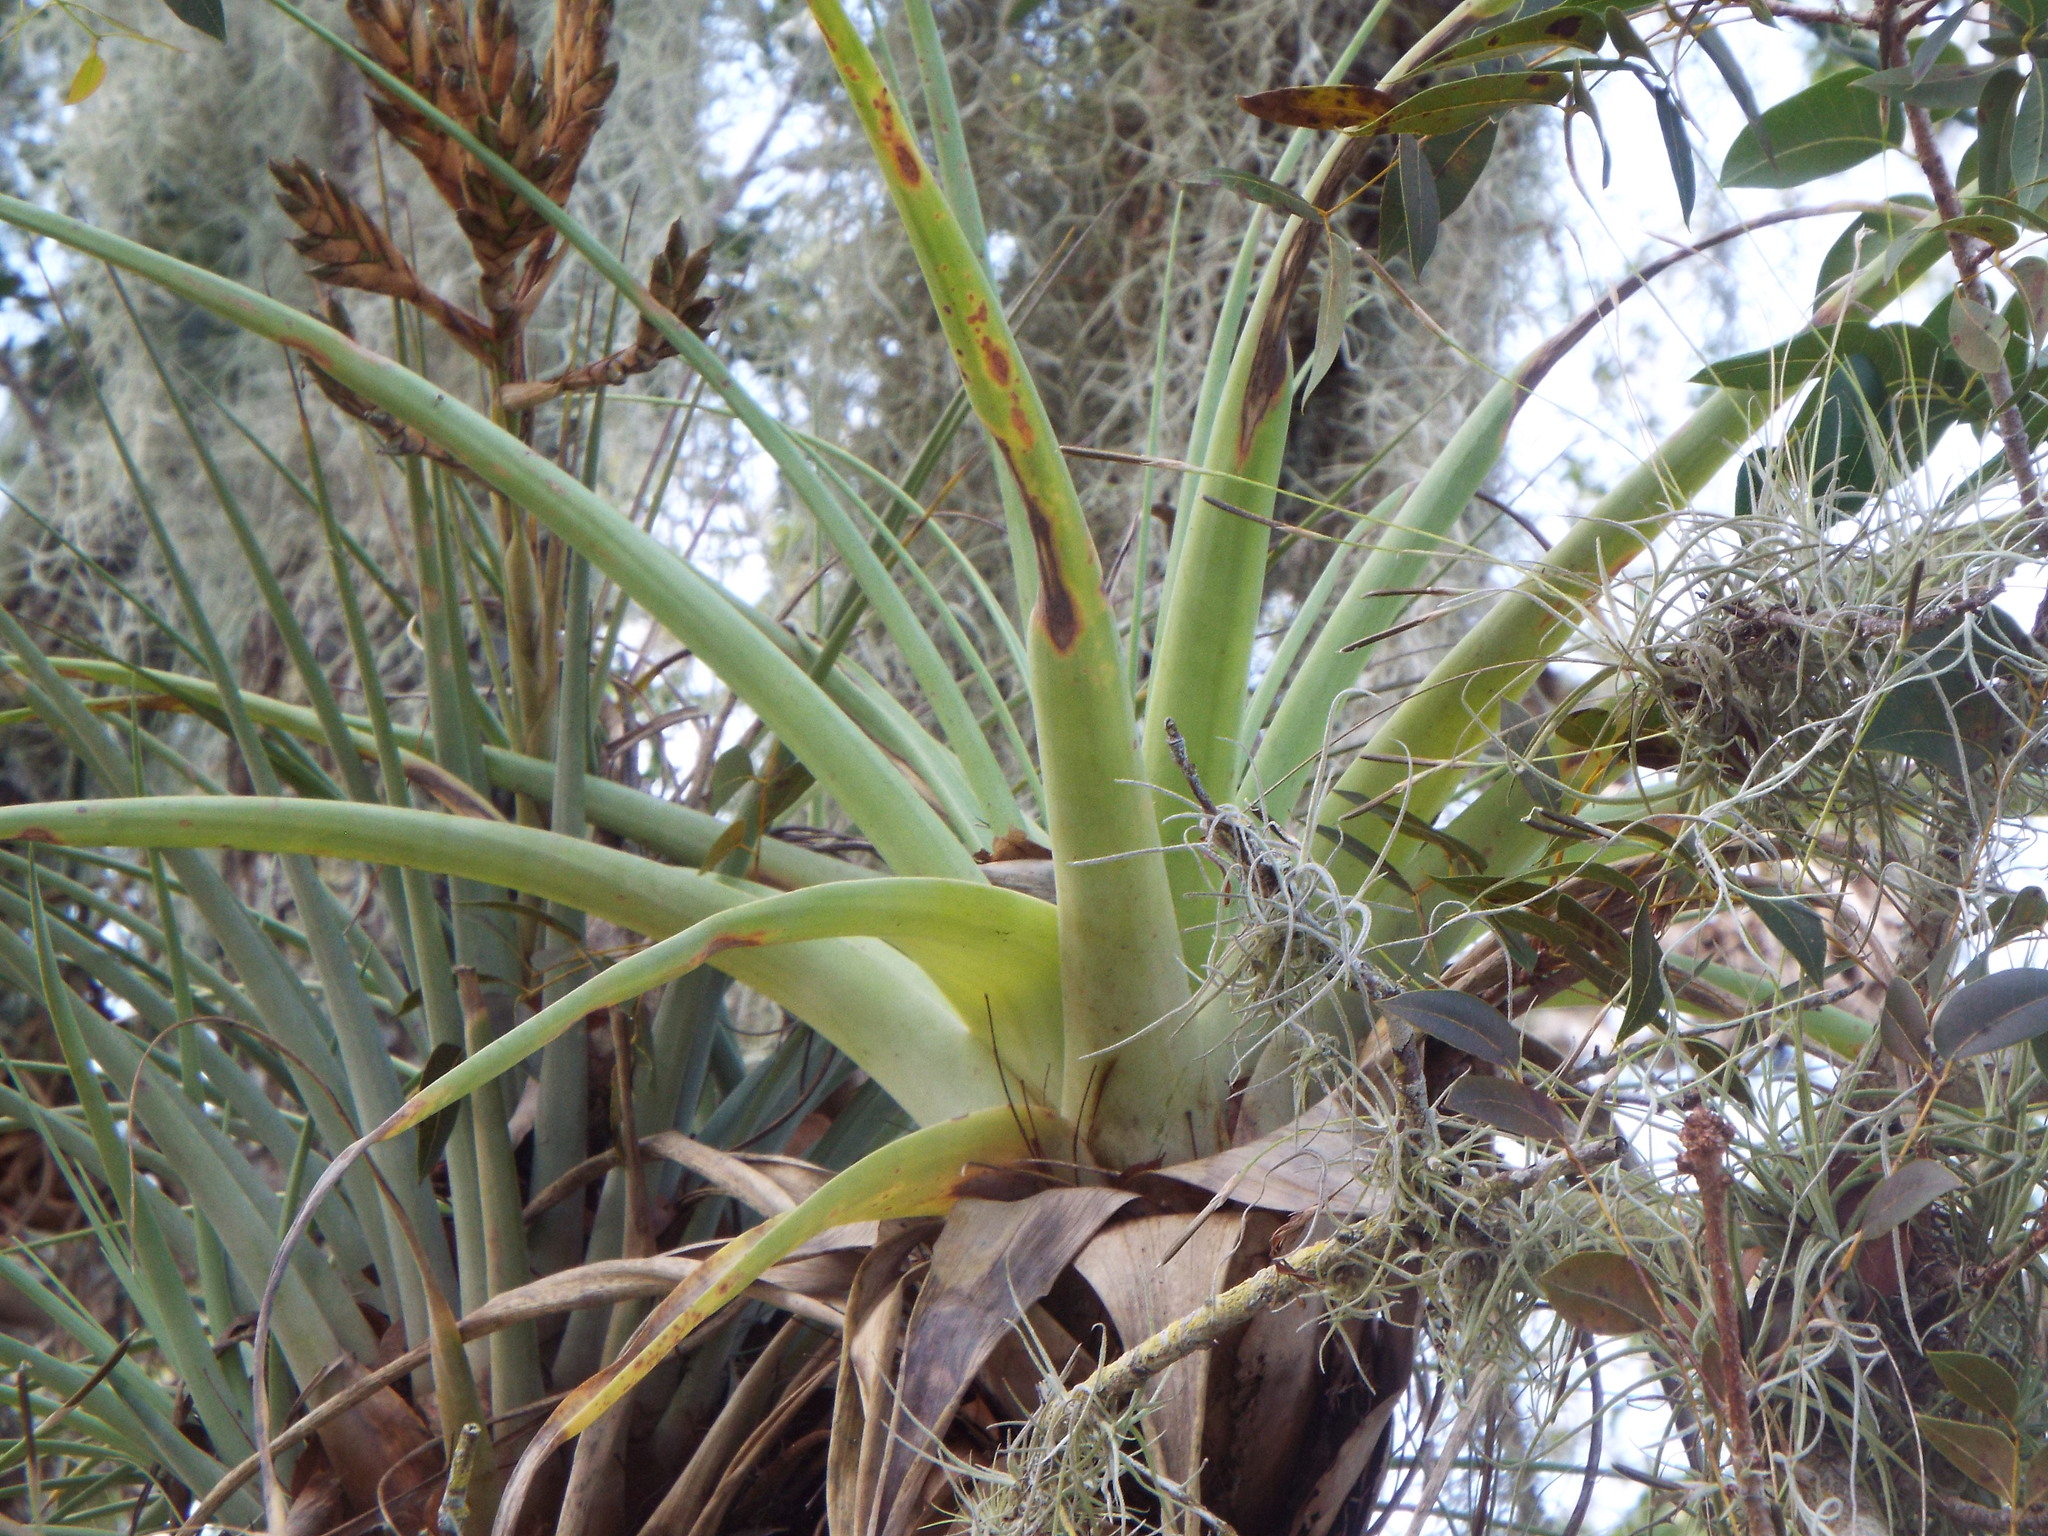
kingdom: Plantae
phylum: Tracheophyta
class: Liliopsida
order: Poales
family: Bromeliaceae
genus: Tillandsia
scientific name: Tillandsia utriculata
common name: Wild pine
